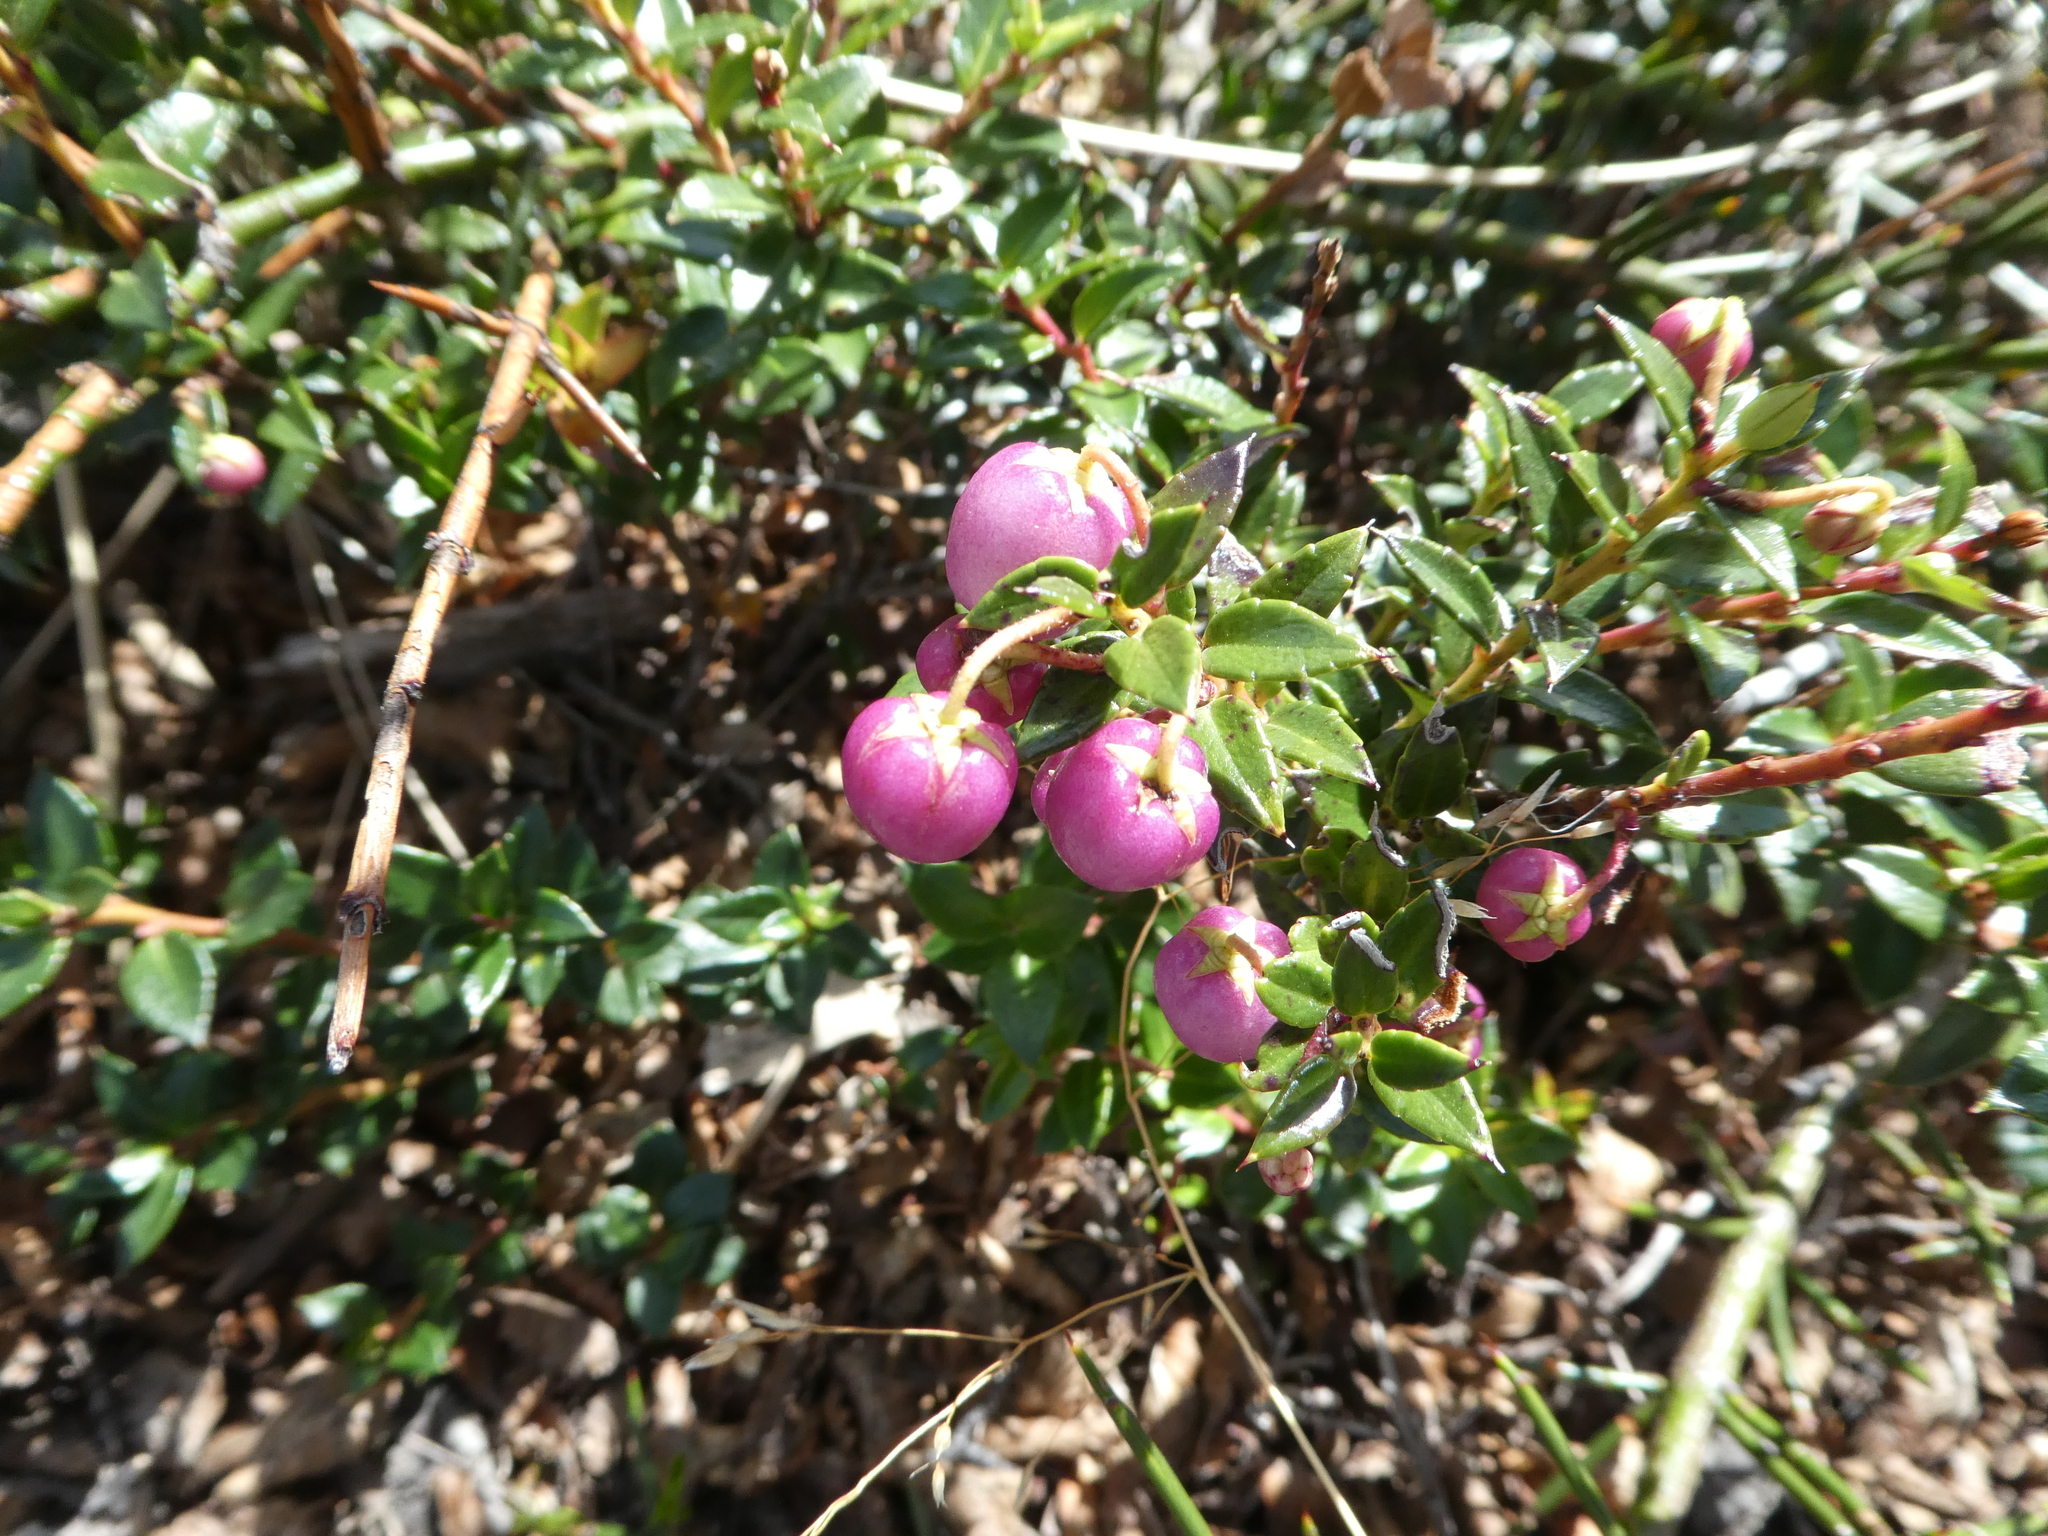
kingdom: Plantae
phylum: Tracheophyta
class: Magnoliopsida
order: Ericales
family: Ericaceae
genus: Gaultheria
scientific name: Gaultheria mucronata
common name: Prickly heath
